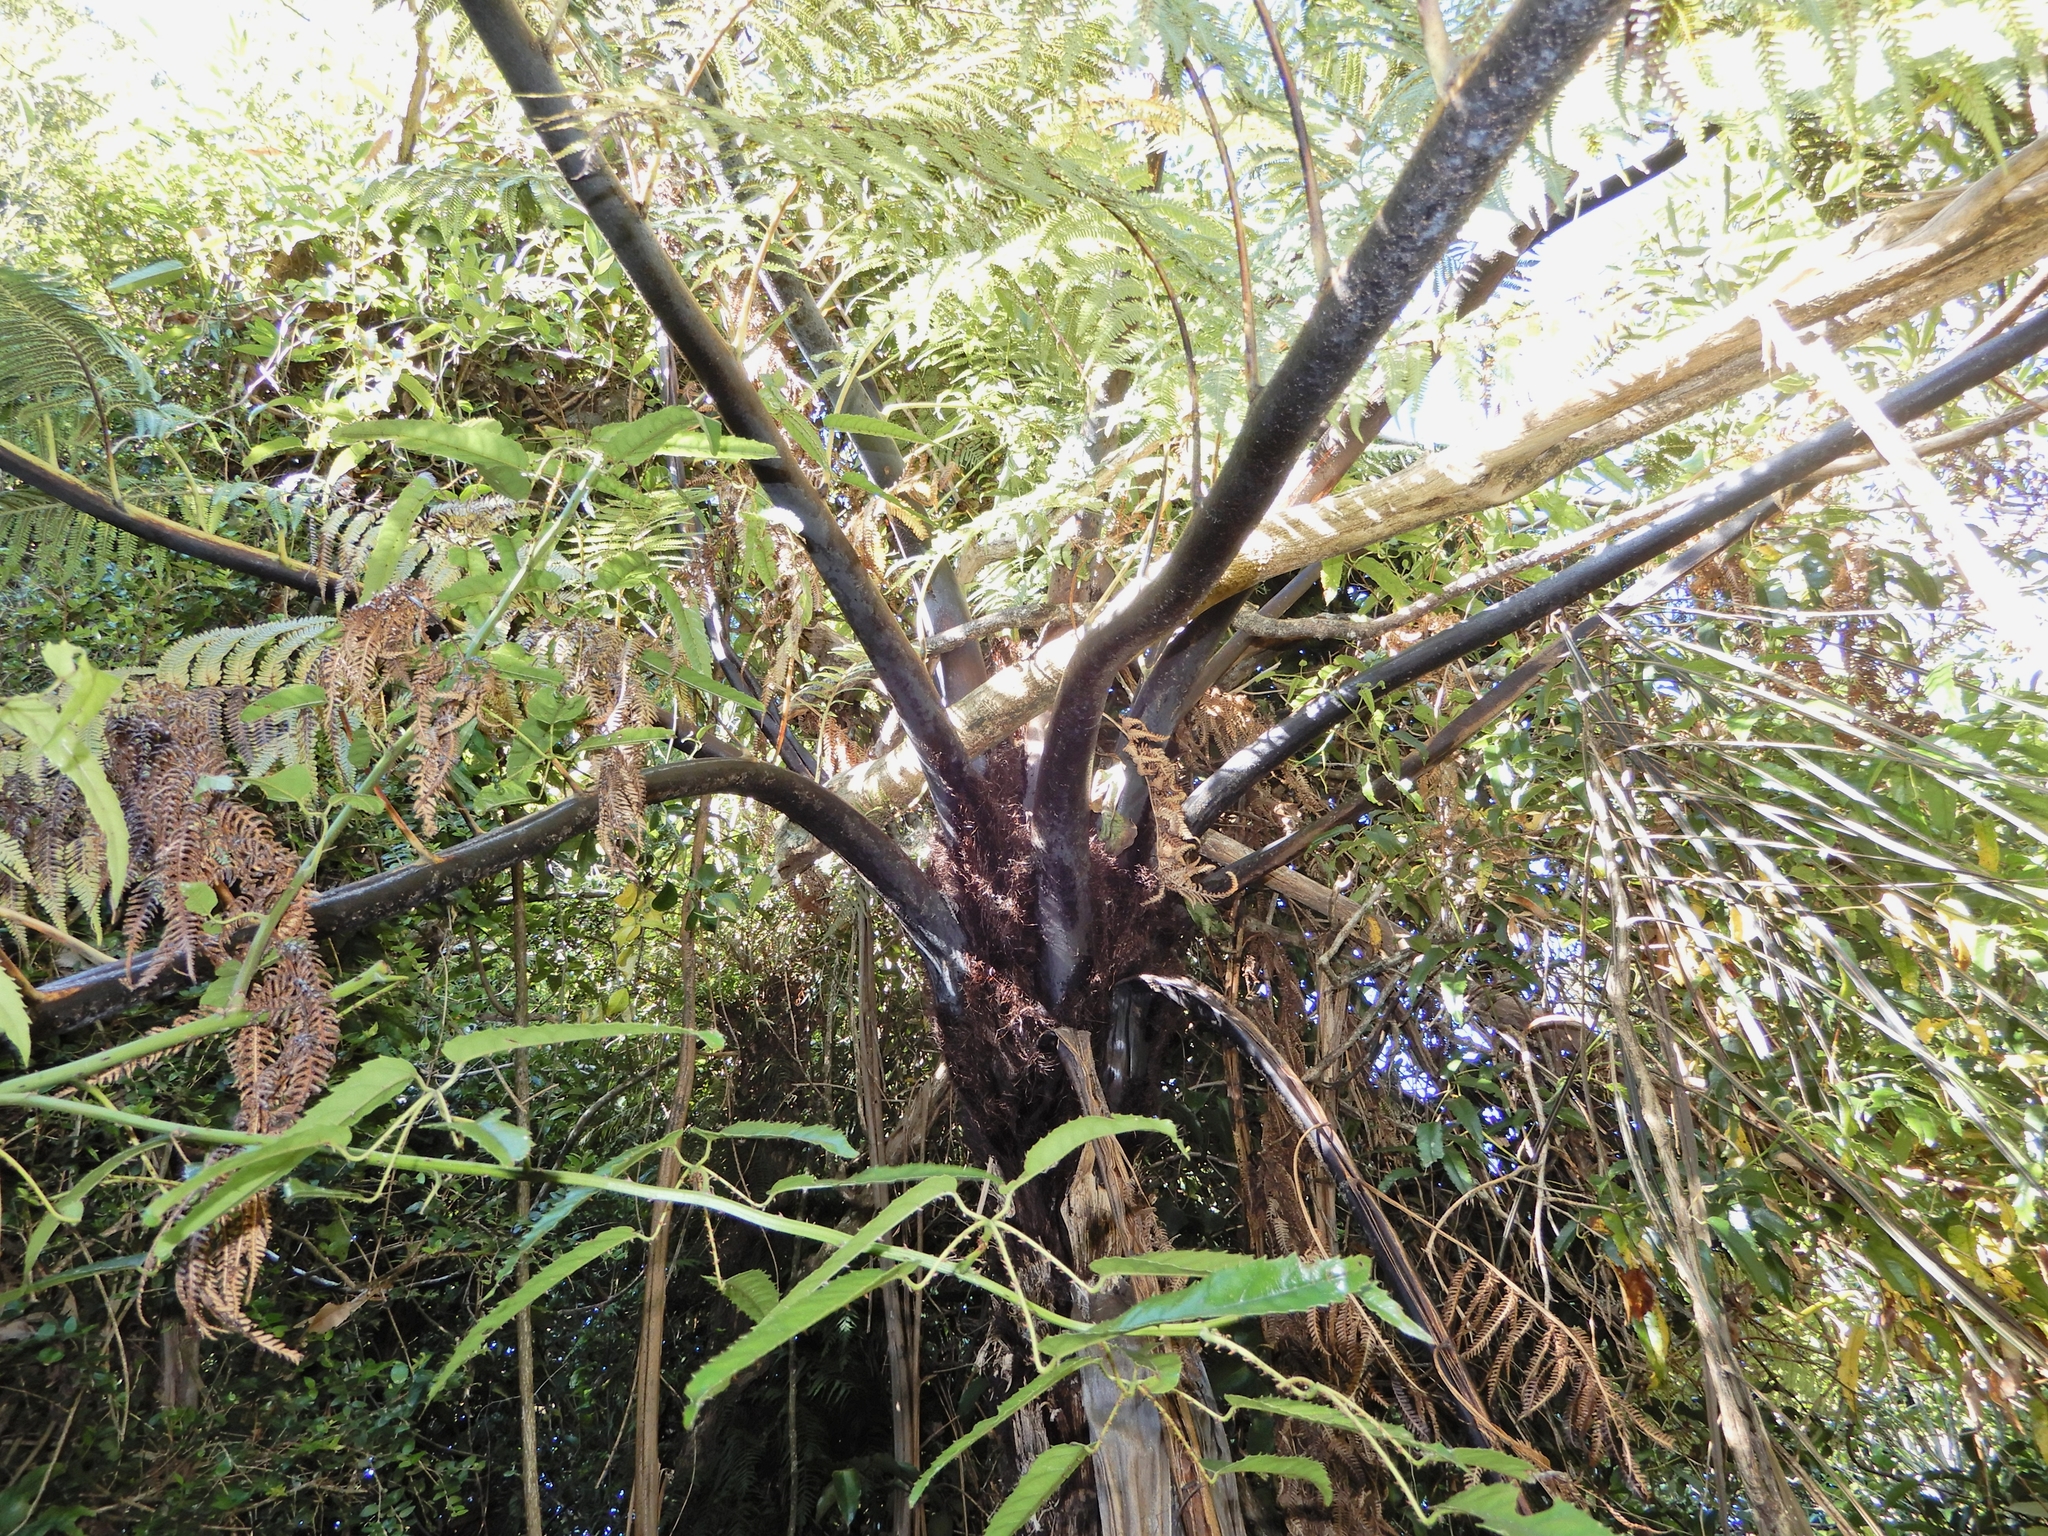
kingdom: Plantae
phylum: Tracheophyta
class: Polypodiopsida
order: Cyatheales
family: Cyatheaceae
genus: Sphaeropteris
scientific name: Sphaeropteris medullaris
